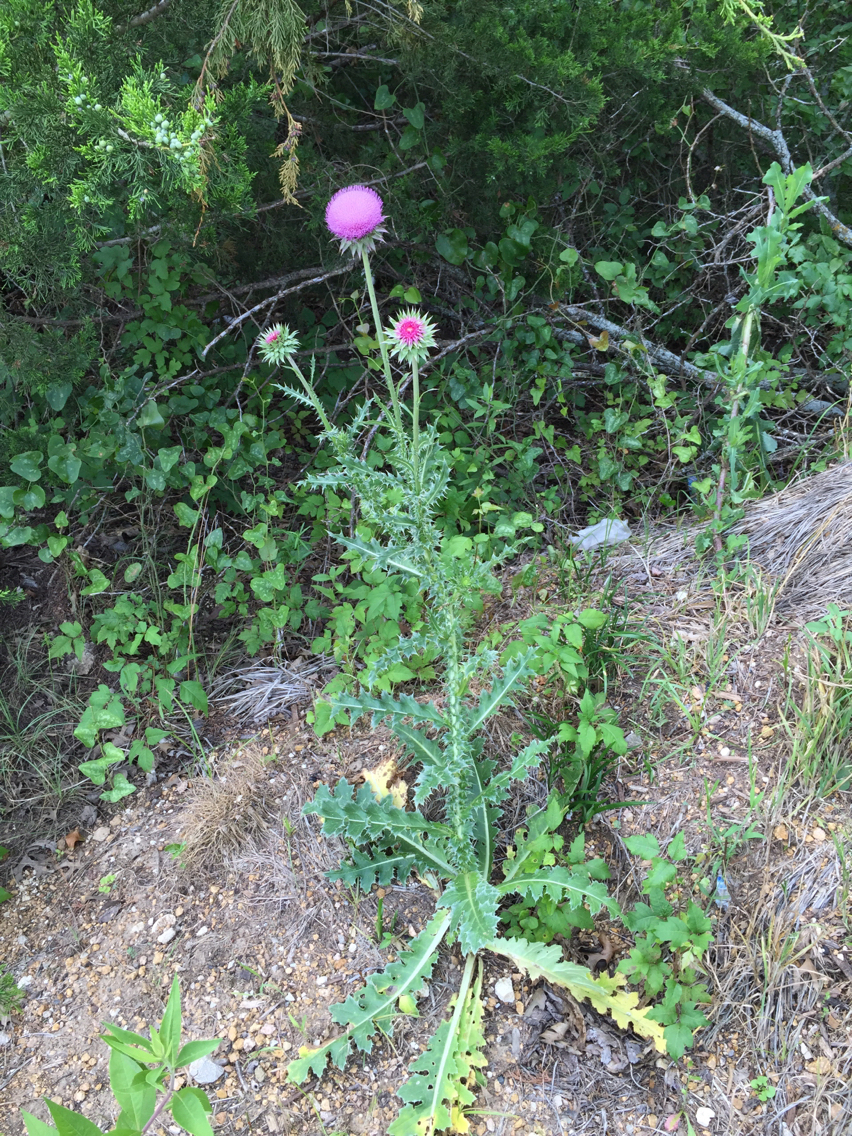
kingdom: Plantae
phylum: Tracheophyta
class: Magnoliopsida
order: Asterales
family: Asteraceae
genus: Carduus
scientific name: Carduus nutans
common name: Musk thistle
